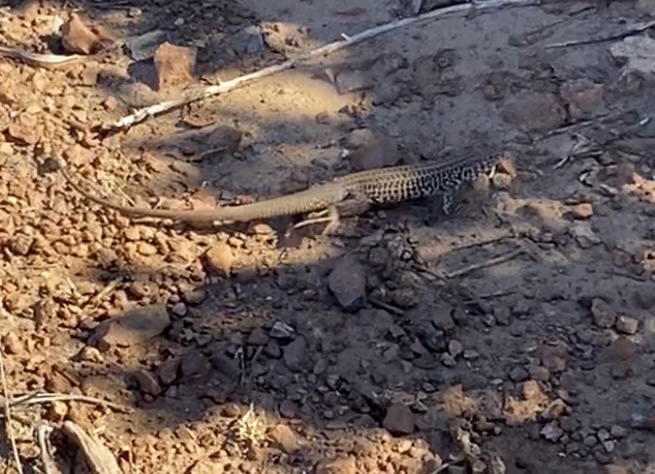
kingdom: Animalia
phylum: Chordata
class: Squamata
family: Teiidae
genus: Aspidoscelis
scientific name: Aspidoscelis tigris
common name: Tiger whiptail
